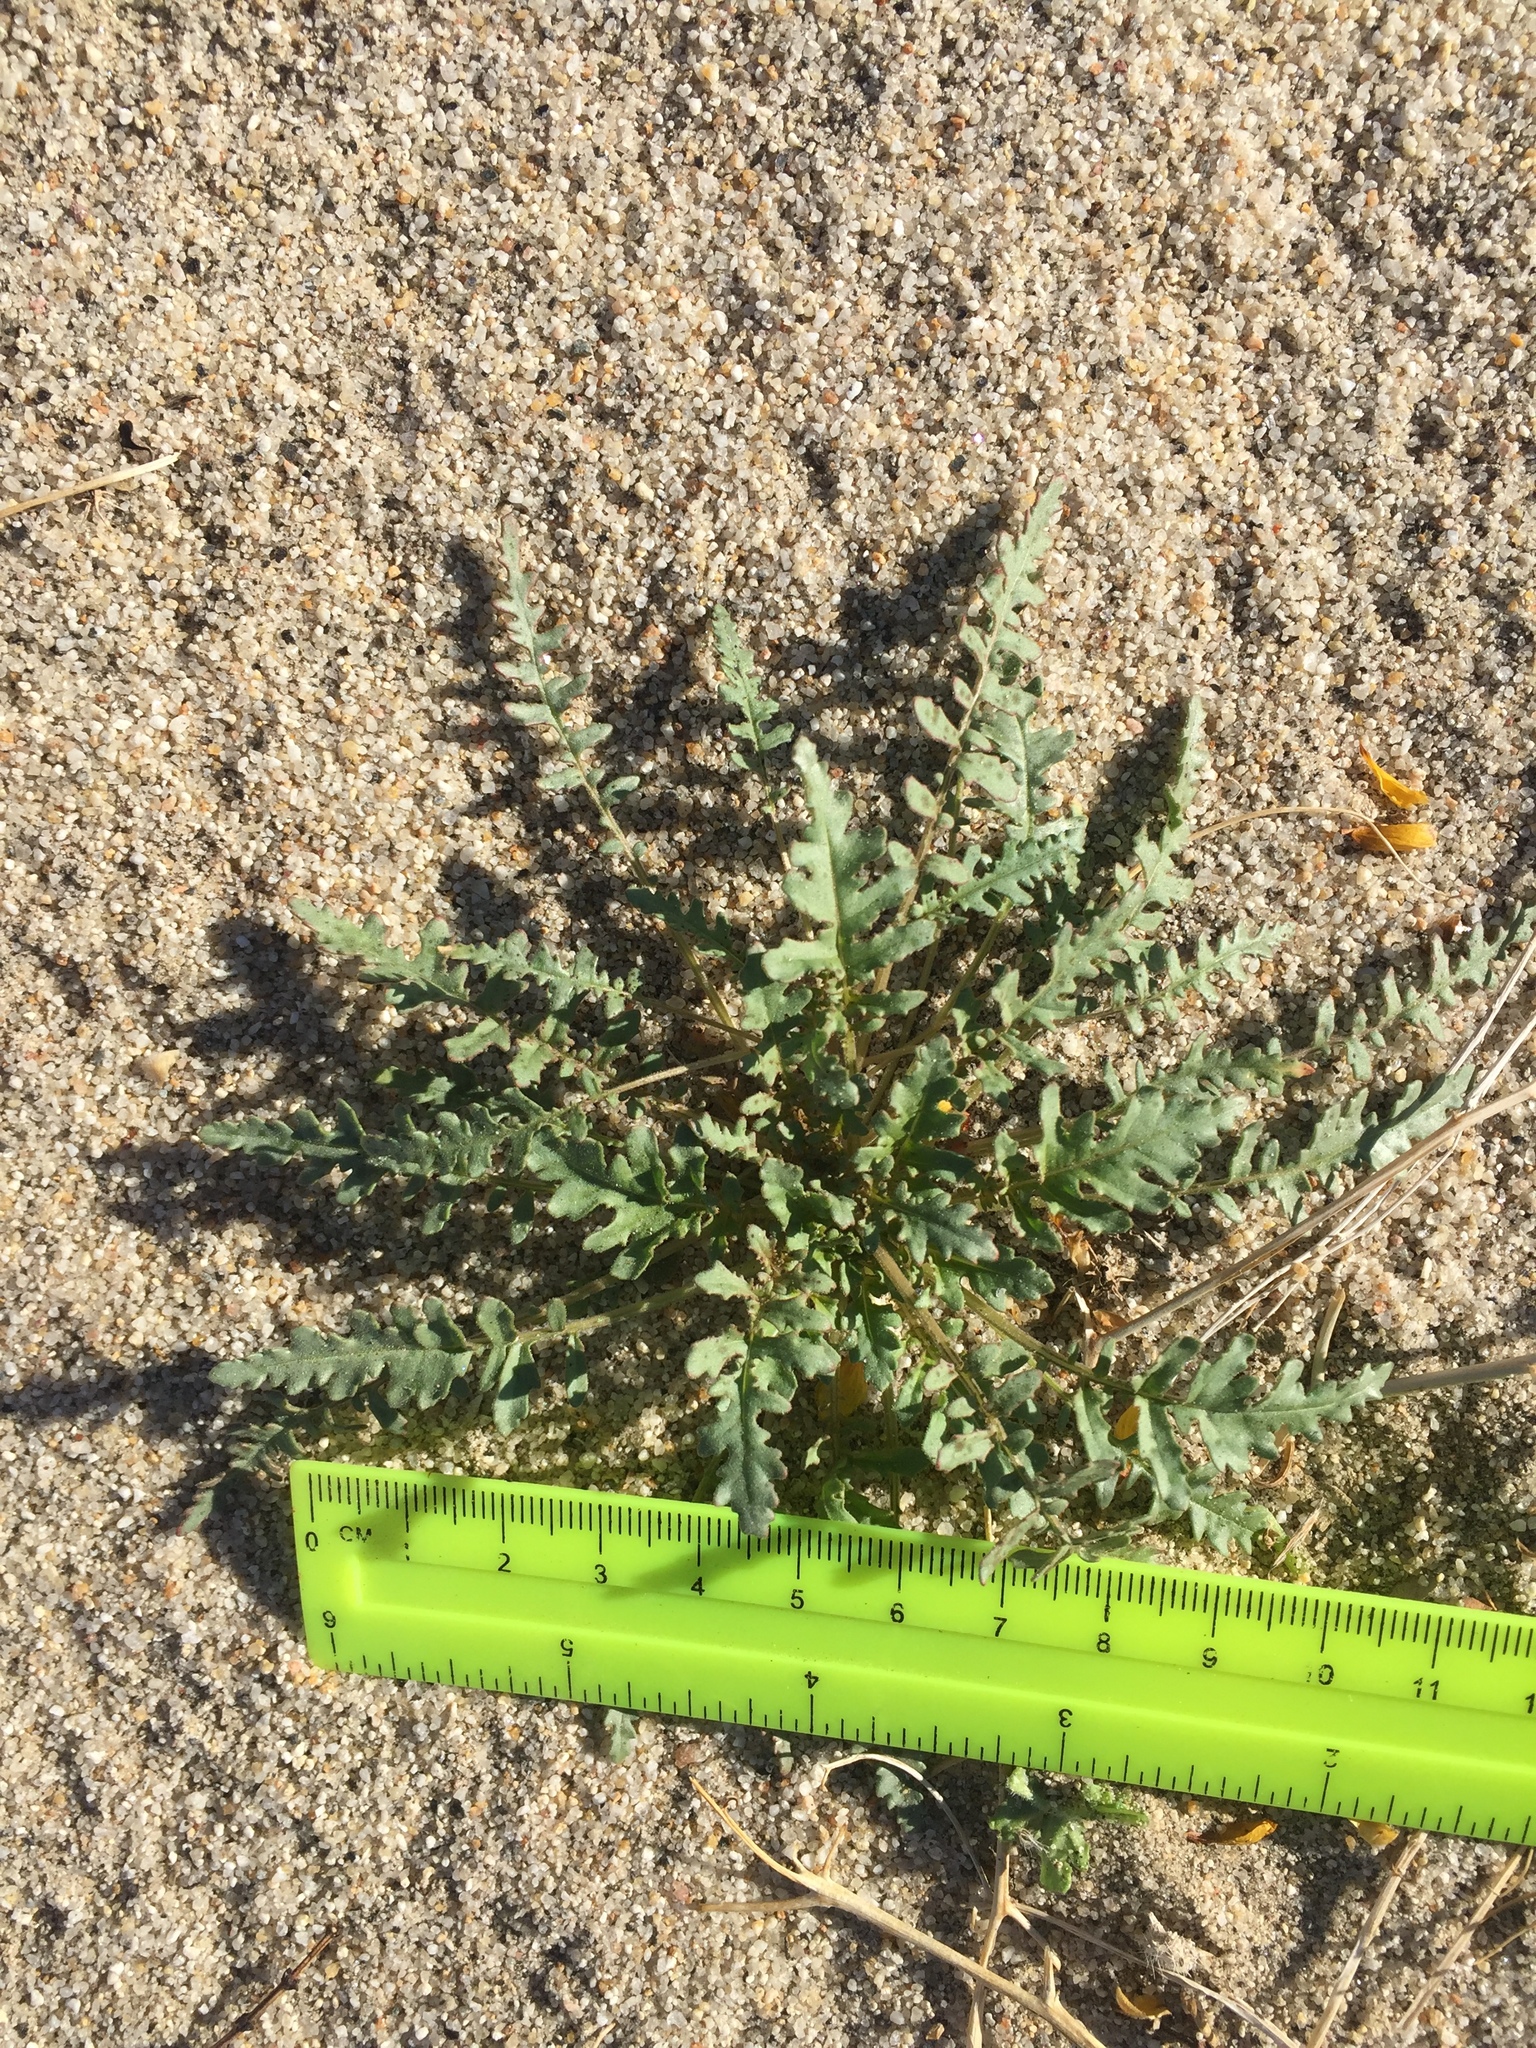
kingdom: Plantae
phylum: Tracheophyta
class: Magnoliopsida
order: Myrtales
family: Onagraceae
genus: Chylismia
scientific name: Chylismia claviformis
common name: Browneyes
